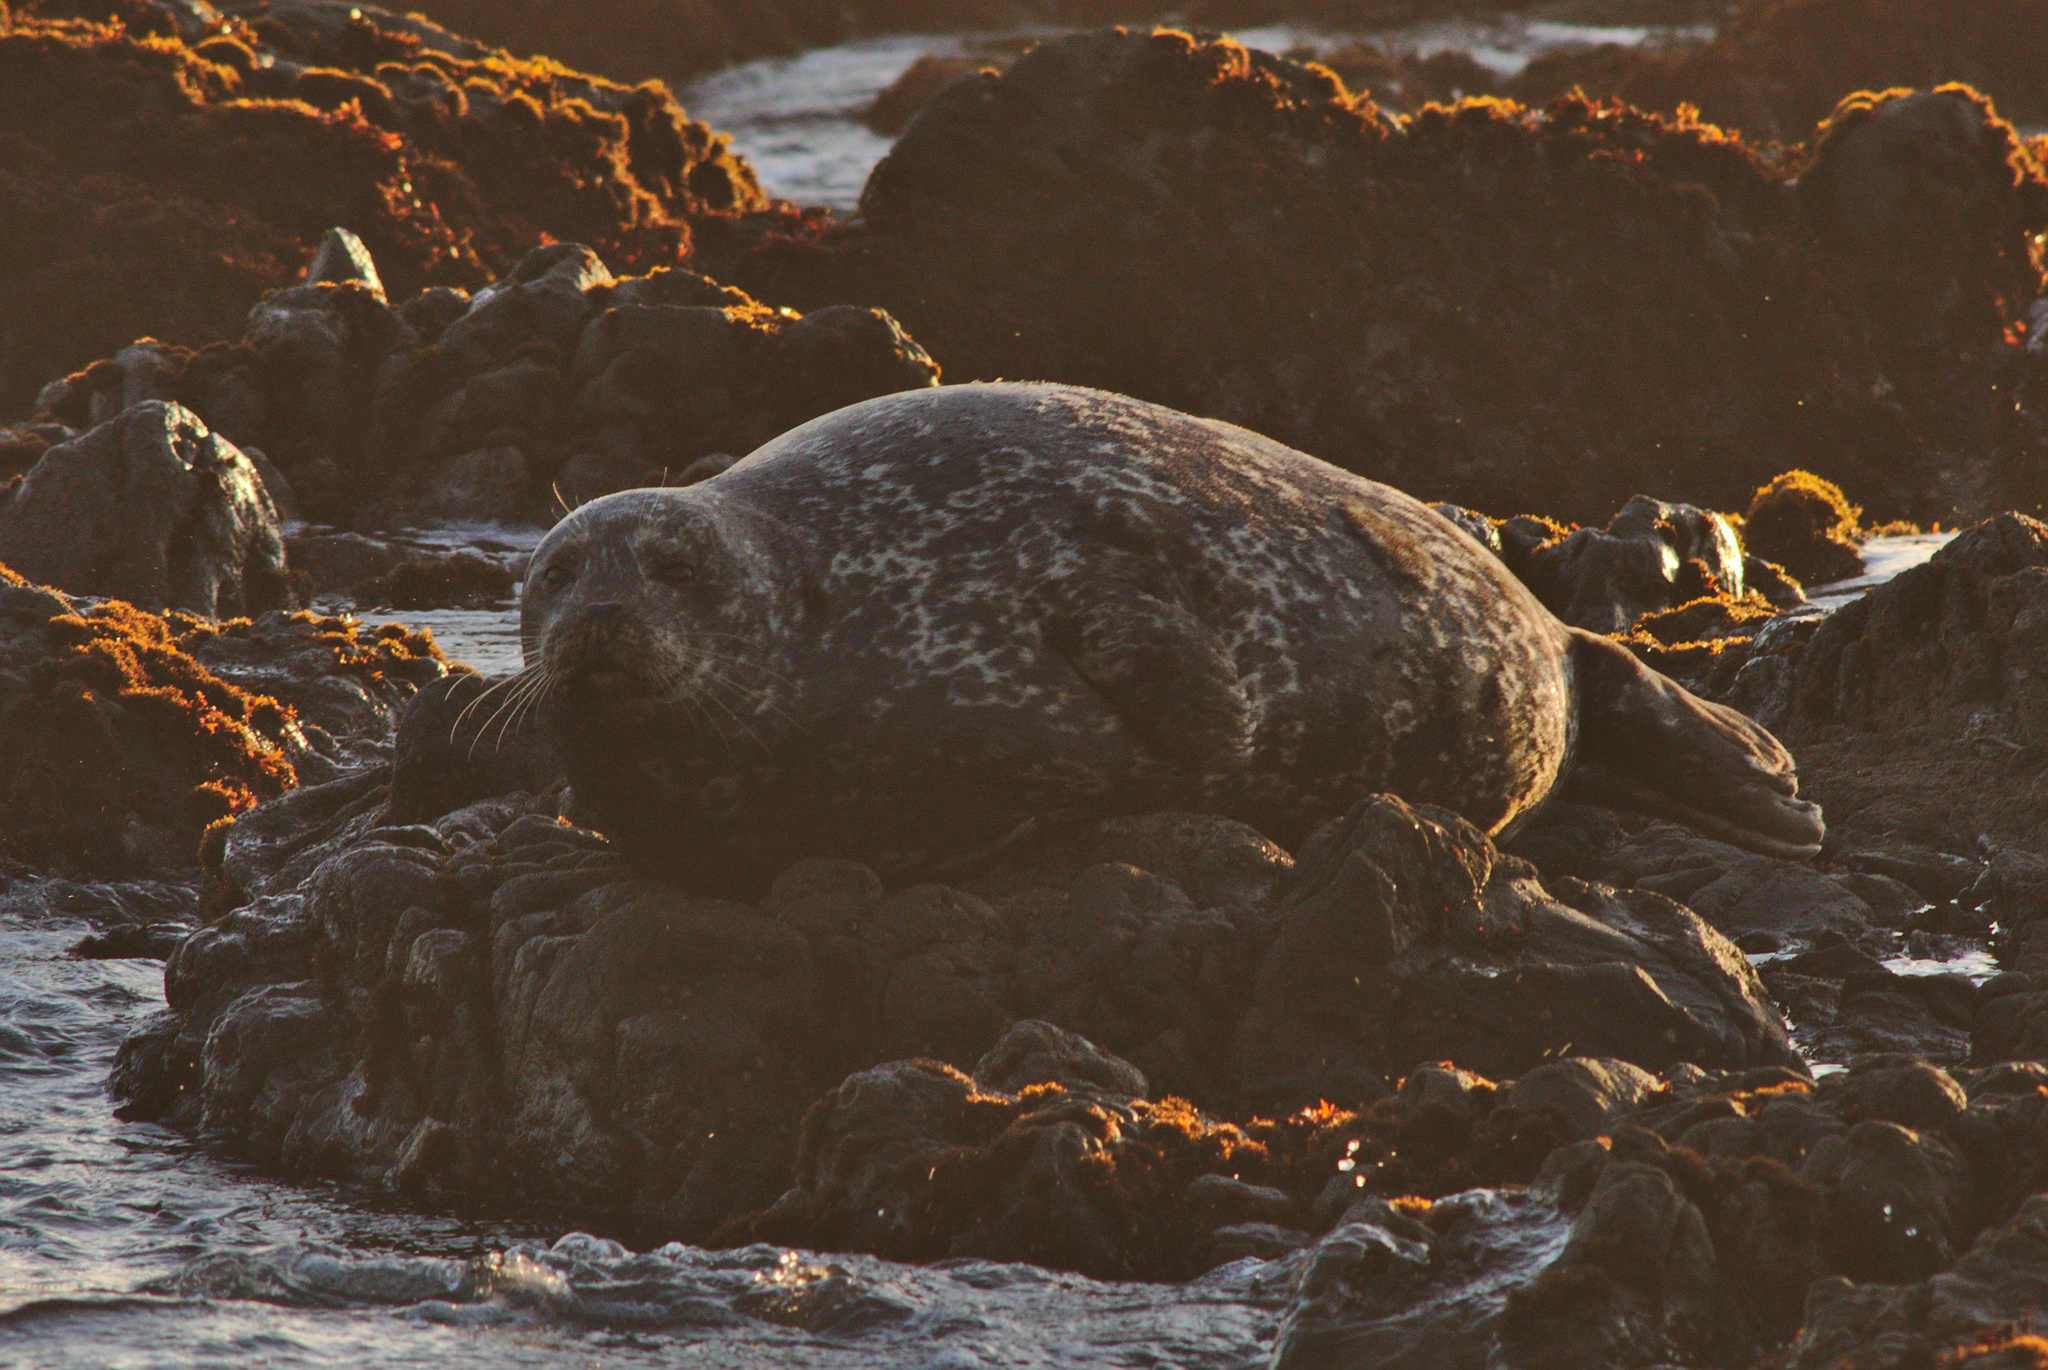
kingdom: Animalia
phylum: Chordata
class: Mammalia
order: Carnivora
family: Phocidae
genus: Phoca
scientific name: Phoca vitulina
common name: Harbor seal
